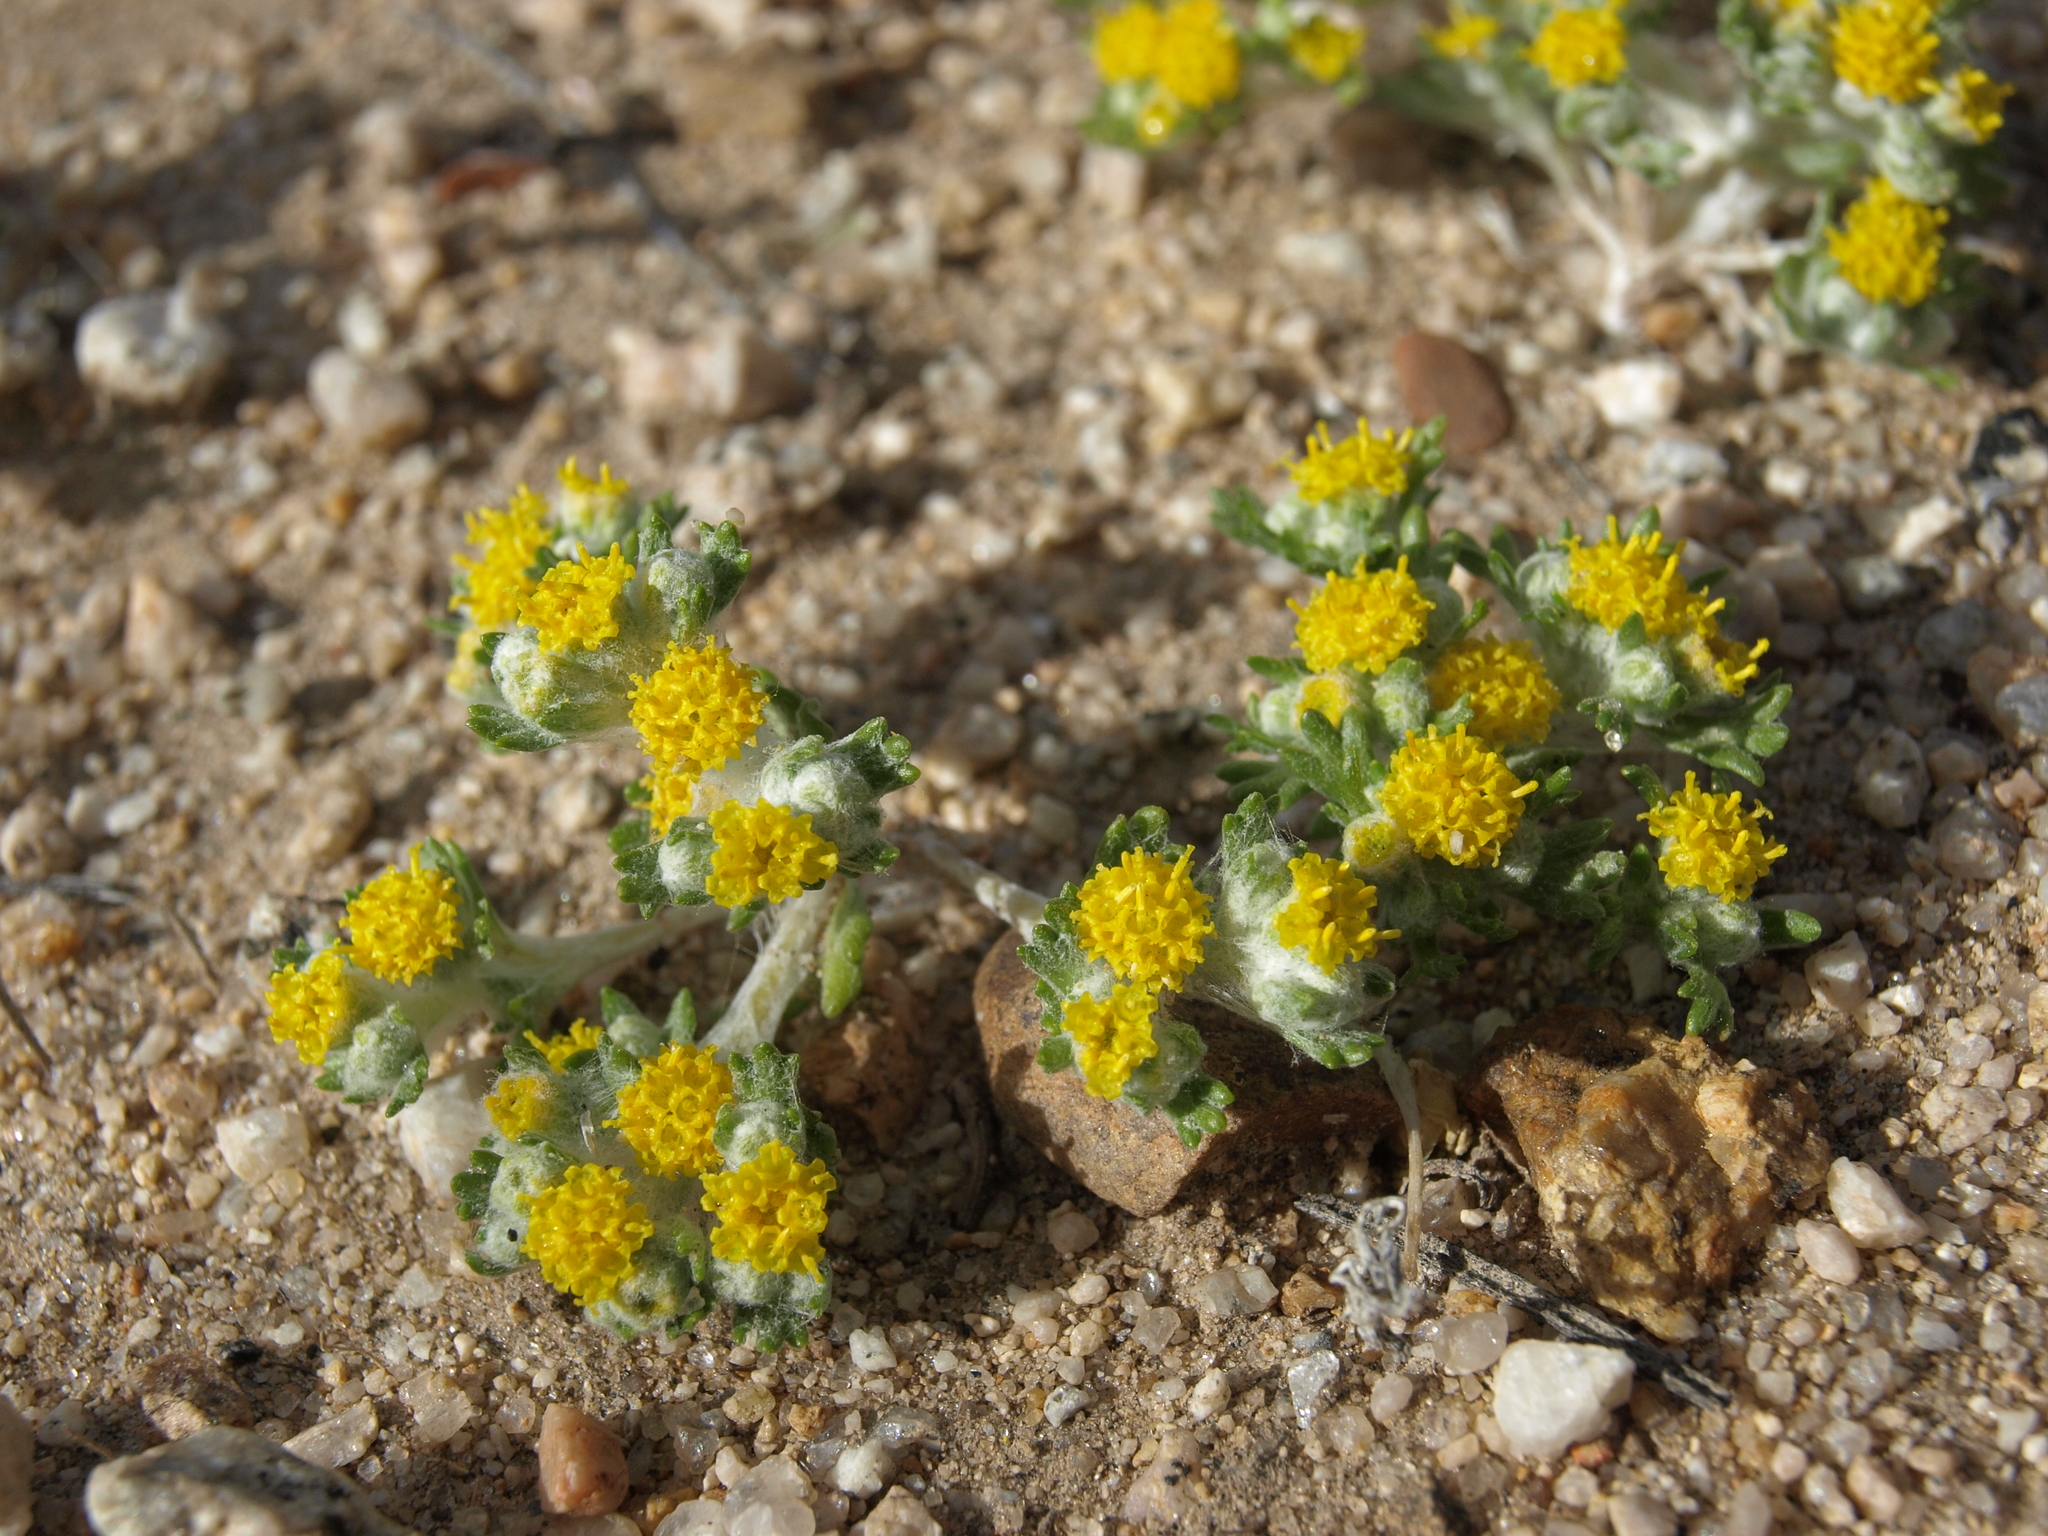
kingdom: Plantae
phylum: Tracheophyta
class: Magnoliopsida
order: Asterales
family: Asteraceae
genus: Eriophyllum
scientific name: Eriophyllum pringlei
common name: Pringle's woolly-sunflower
